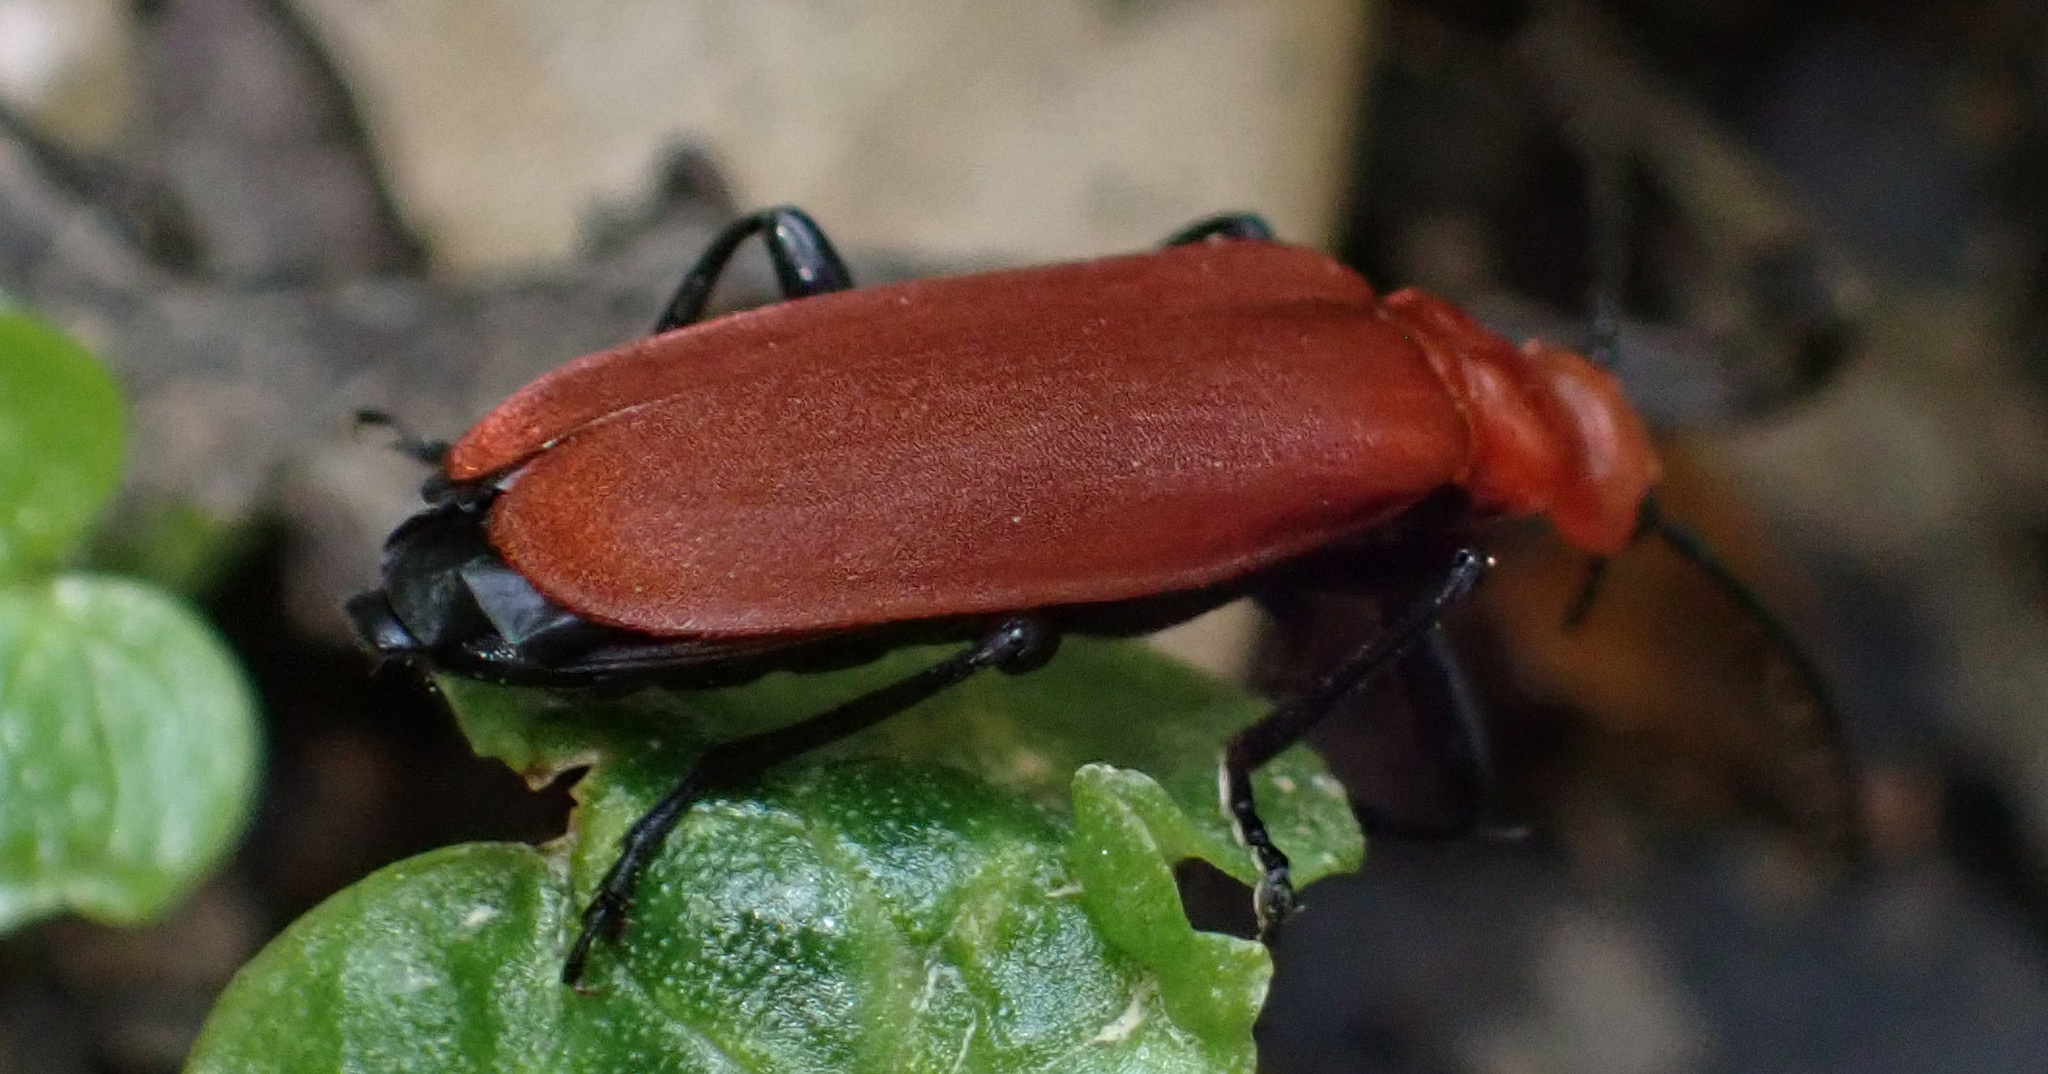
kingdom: Animalia
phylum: Arthropoda
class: Insecta
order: Coleoptera
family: Pyrochroidae
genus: Pyrochroa
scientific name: Pyrochroa serraticornis
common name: Red-headed cardinal beetle
